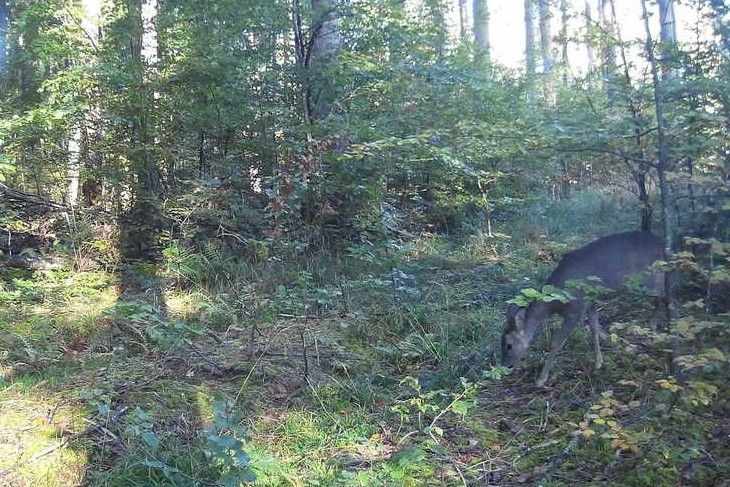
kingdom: Animalia
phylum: Chordata
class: Mammalia
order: Artiodactyla
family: Cervidae
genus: Capreolus
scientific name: Capreolus capreolus
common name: Western roe deer
